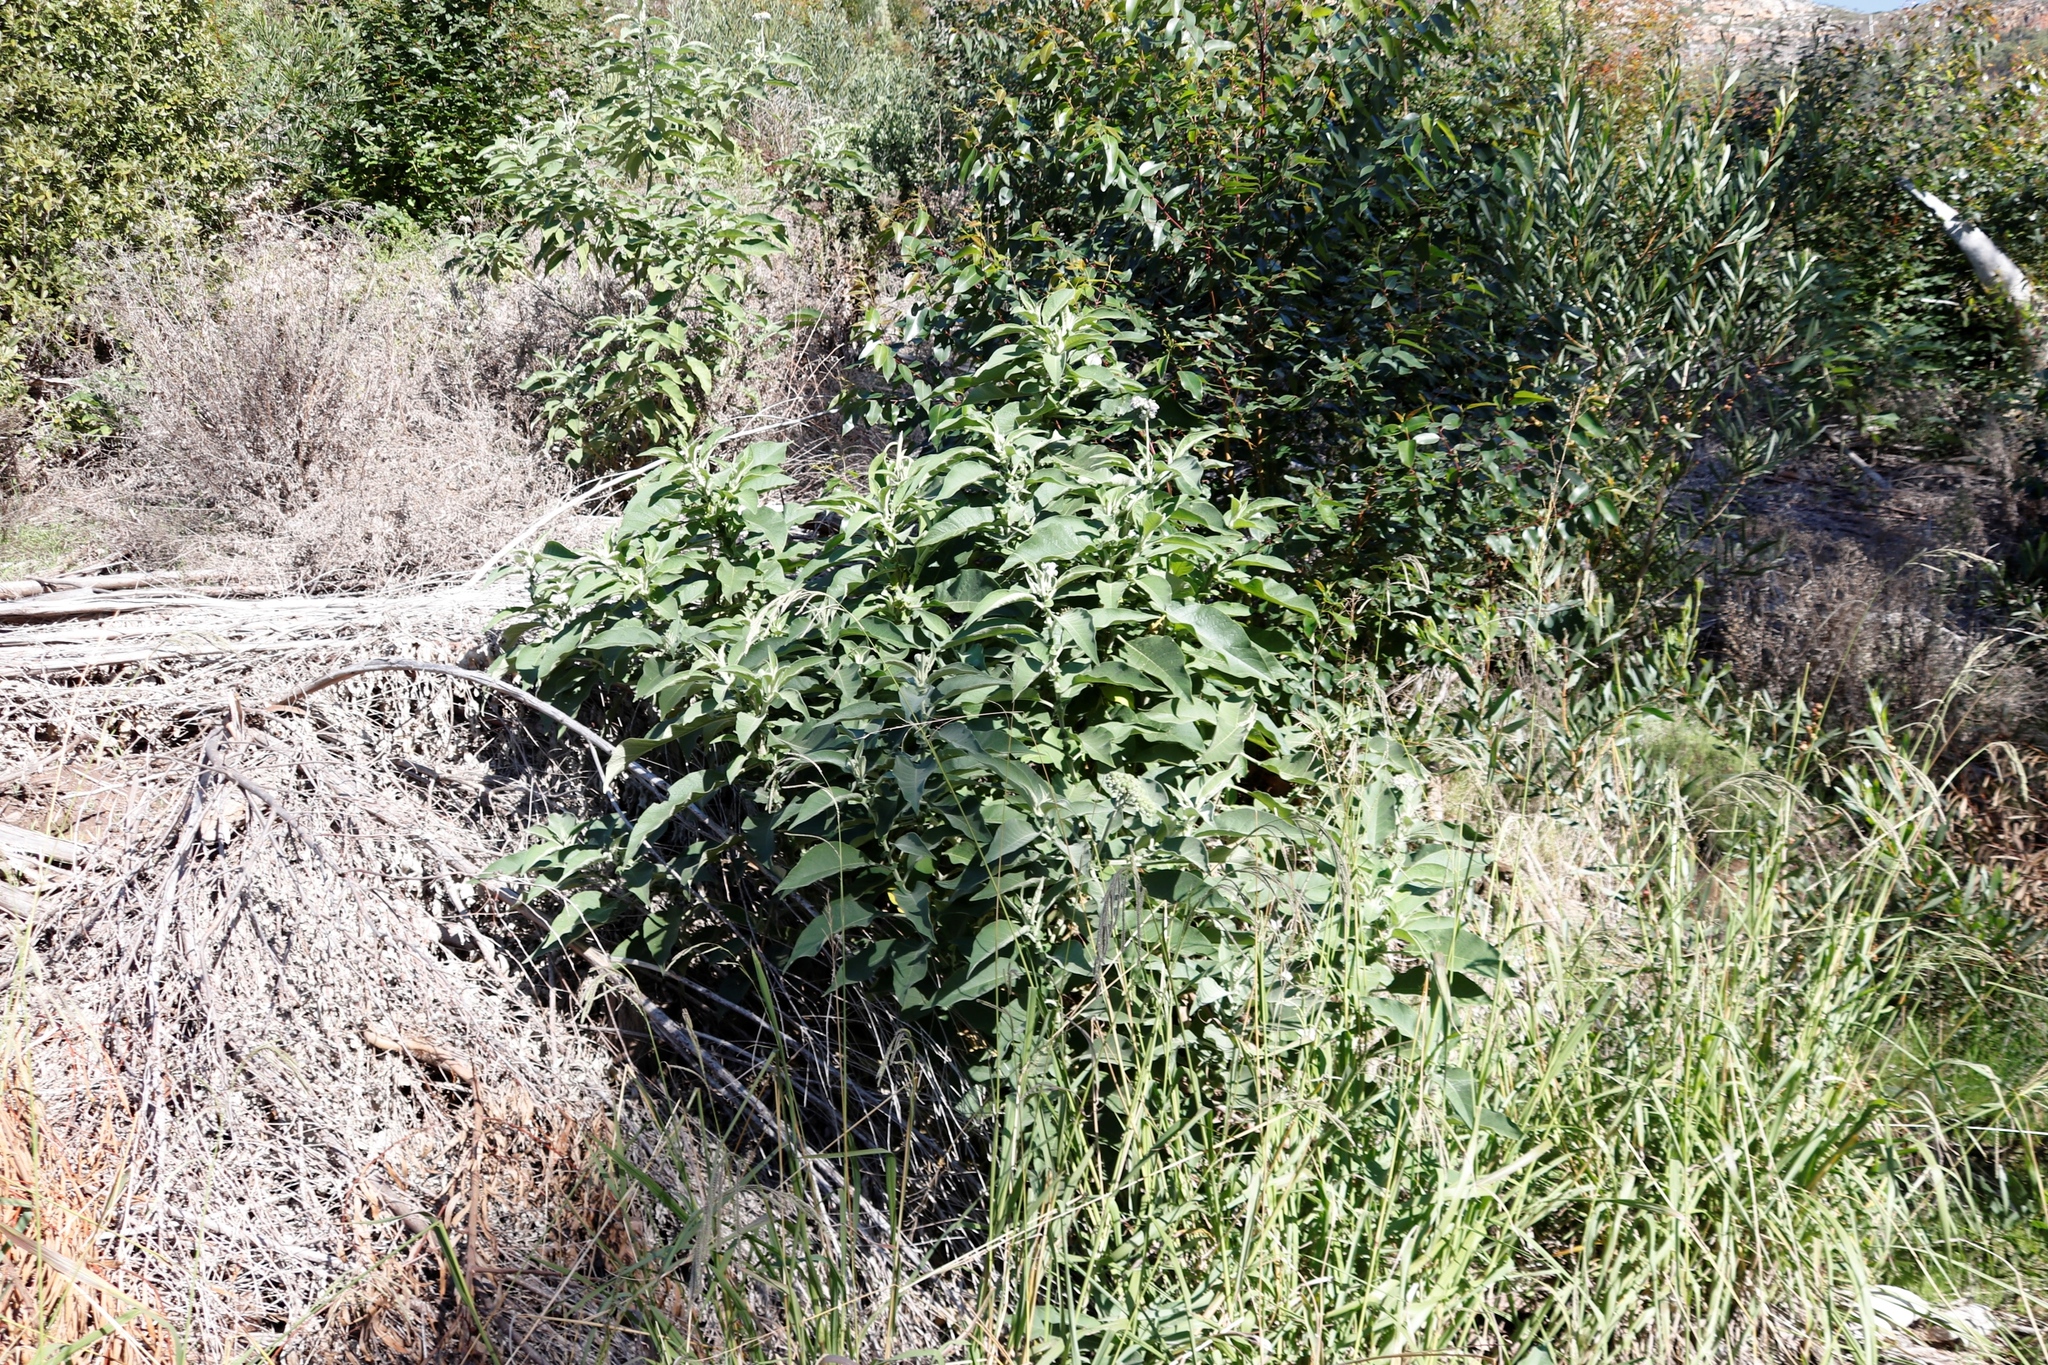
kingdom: Plantae
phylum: Tracheophyta
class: Magnoliopsida
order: Solanales
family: Solanaceae
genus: Solanum
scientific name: Solanum mauritianum
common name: Earleaf nightshade
